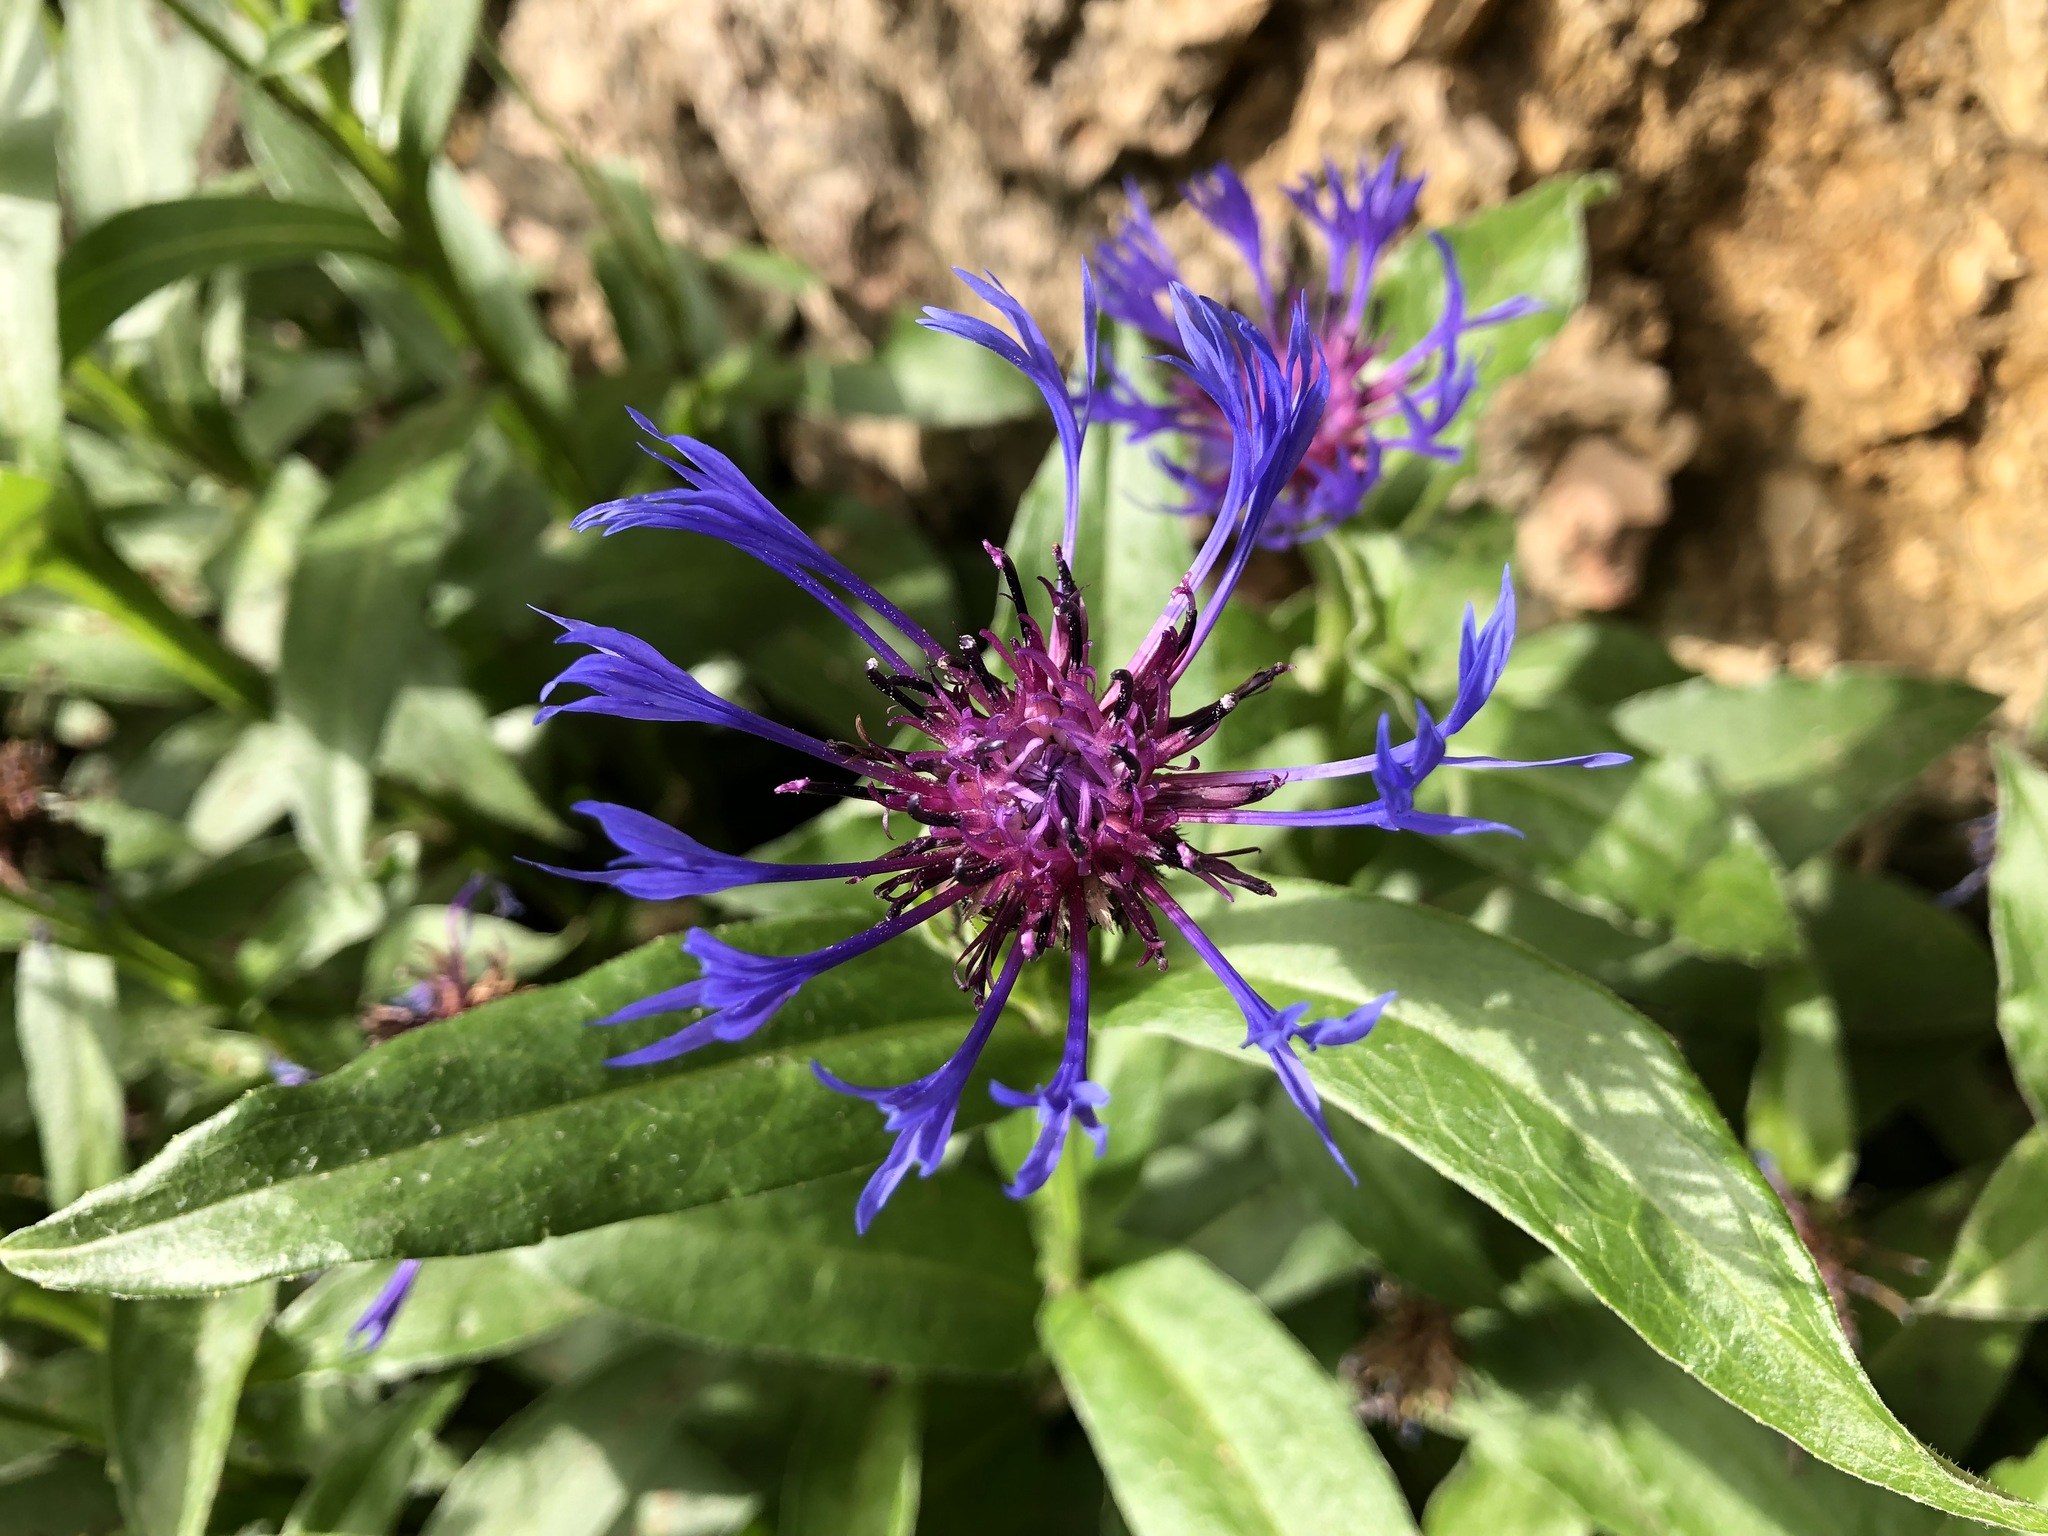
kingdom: Plantae
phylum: Tracheophyta
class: Magnoliopsida
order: Asterales
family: Asteraceae
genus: Centaurea
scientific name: Centaurea montana
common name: Perennial cornflower
